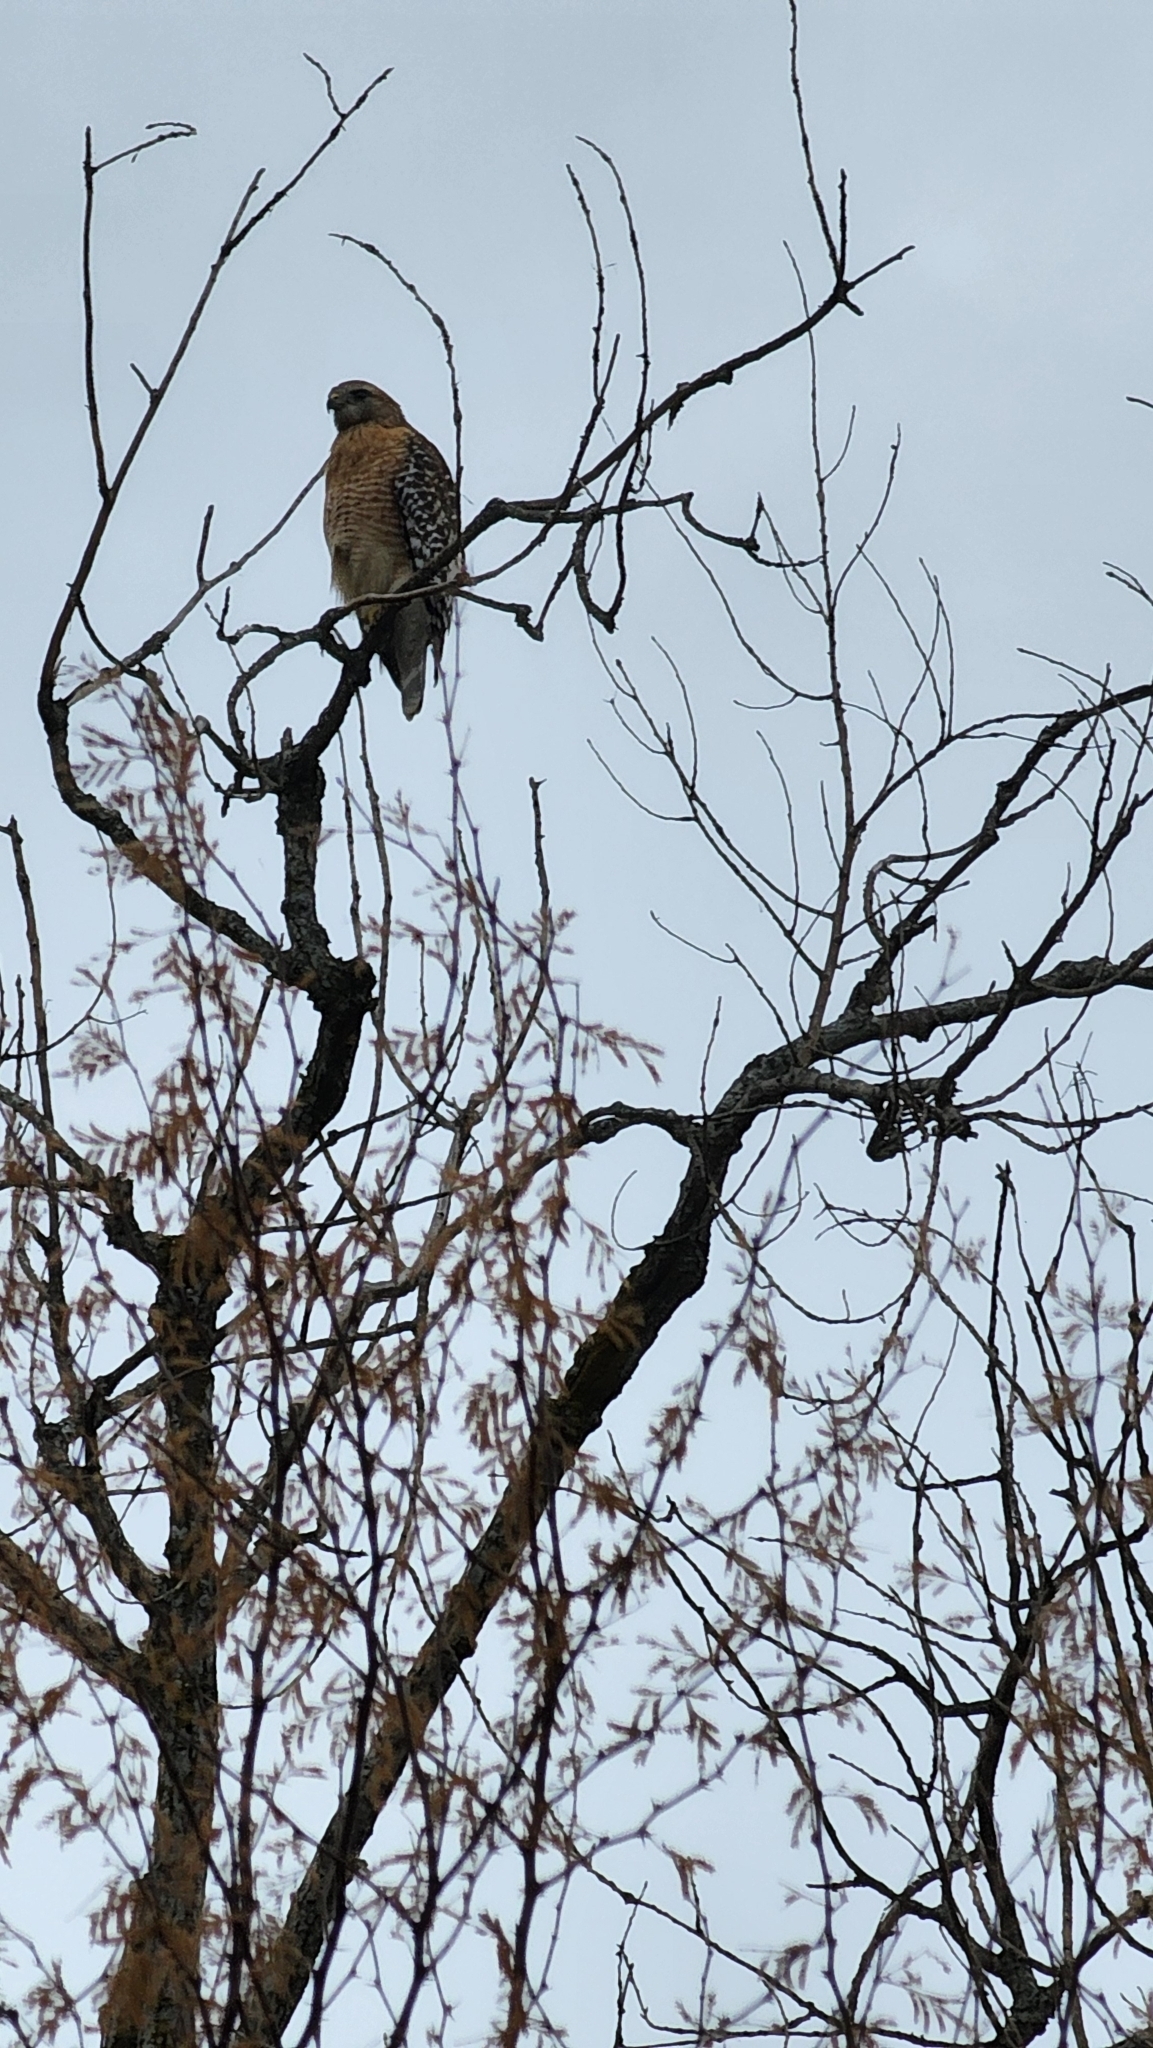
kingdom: Animalia
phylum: Chordata
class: Aves
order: Accipitriformes
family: Accipitridae
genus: Buteo
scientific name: Buteo lineatus
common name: Red-shouldered hawk
